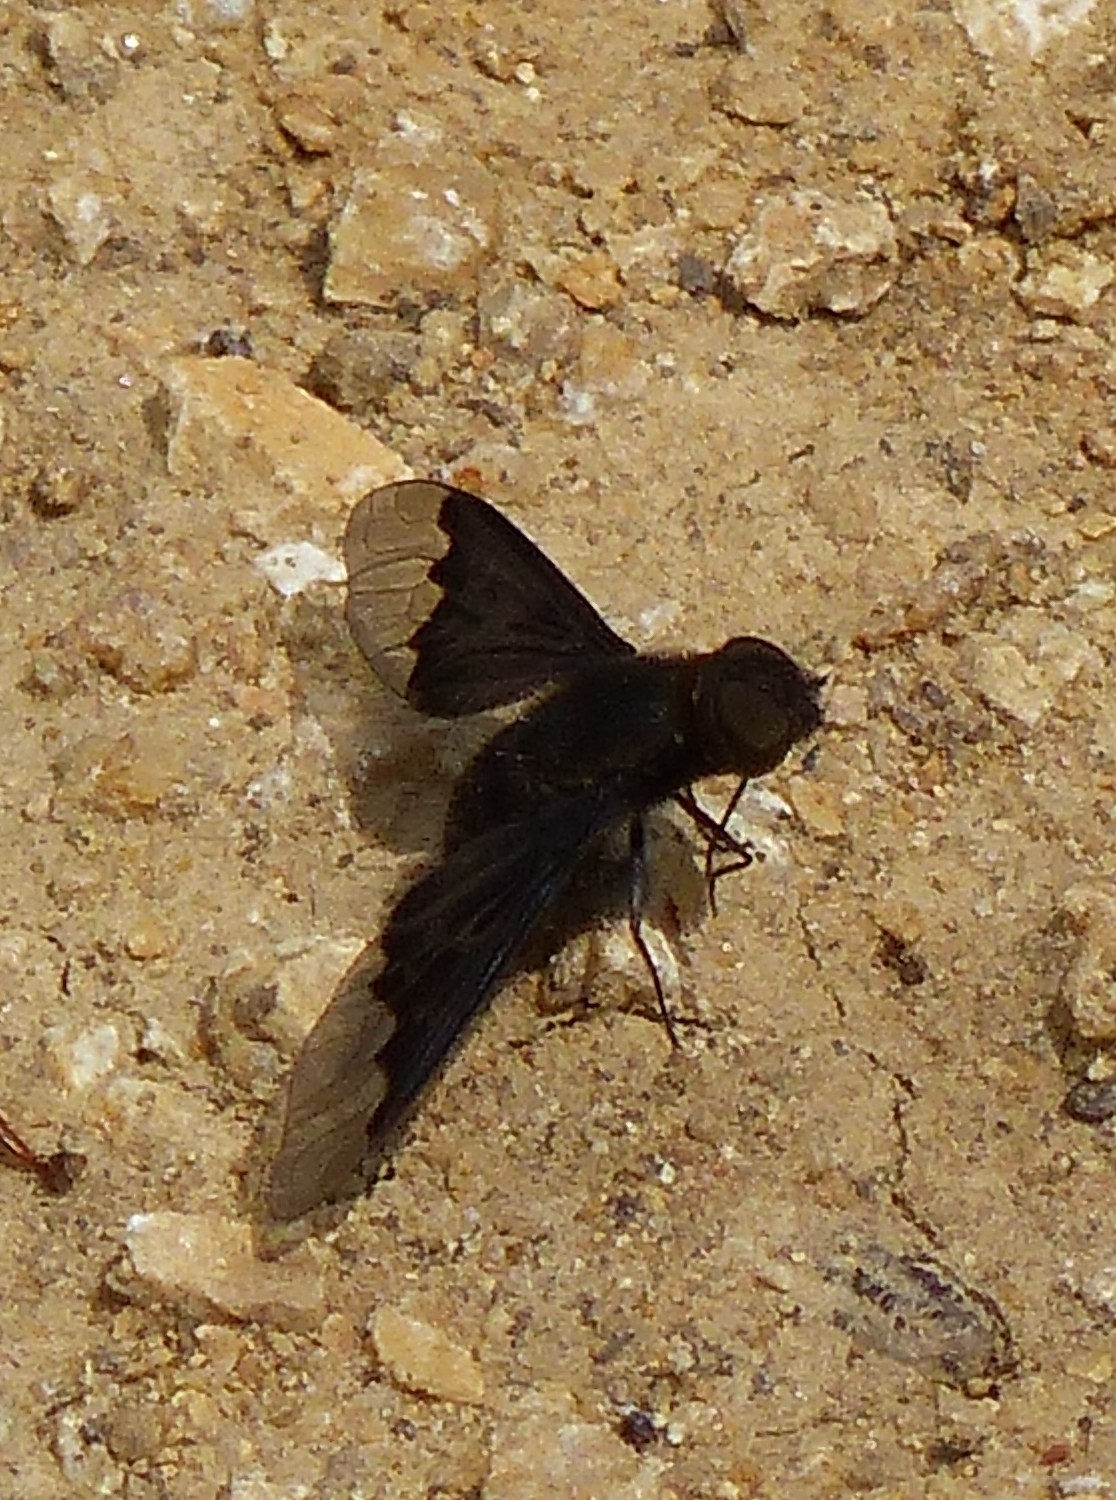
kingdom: Animalia
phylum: Arthropoda
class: Insecta
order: Diptera
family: Bombyliidae
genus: Hemipenthes
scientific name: Hemipenthes morio
